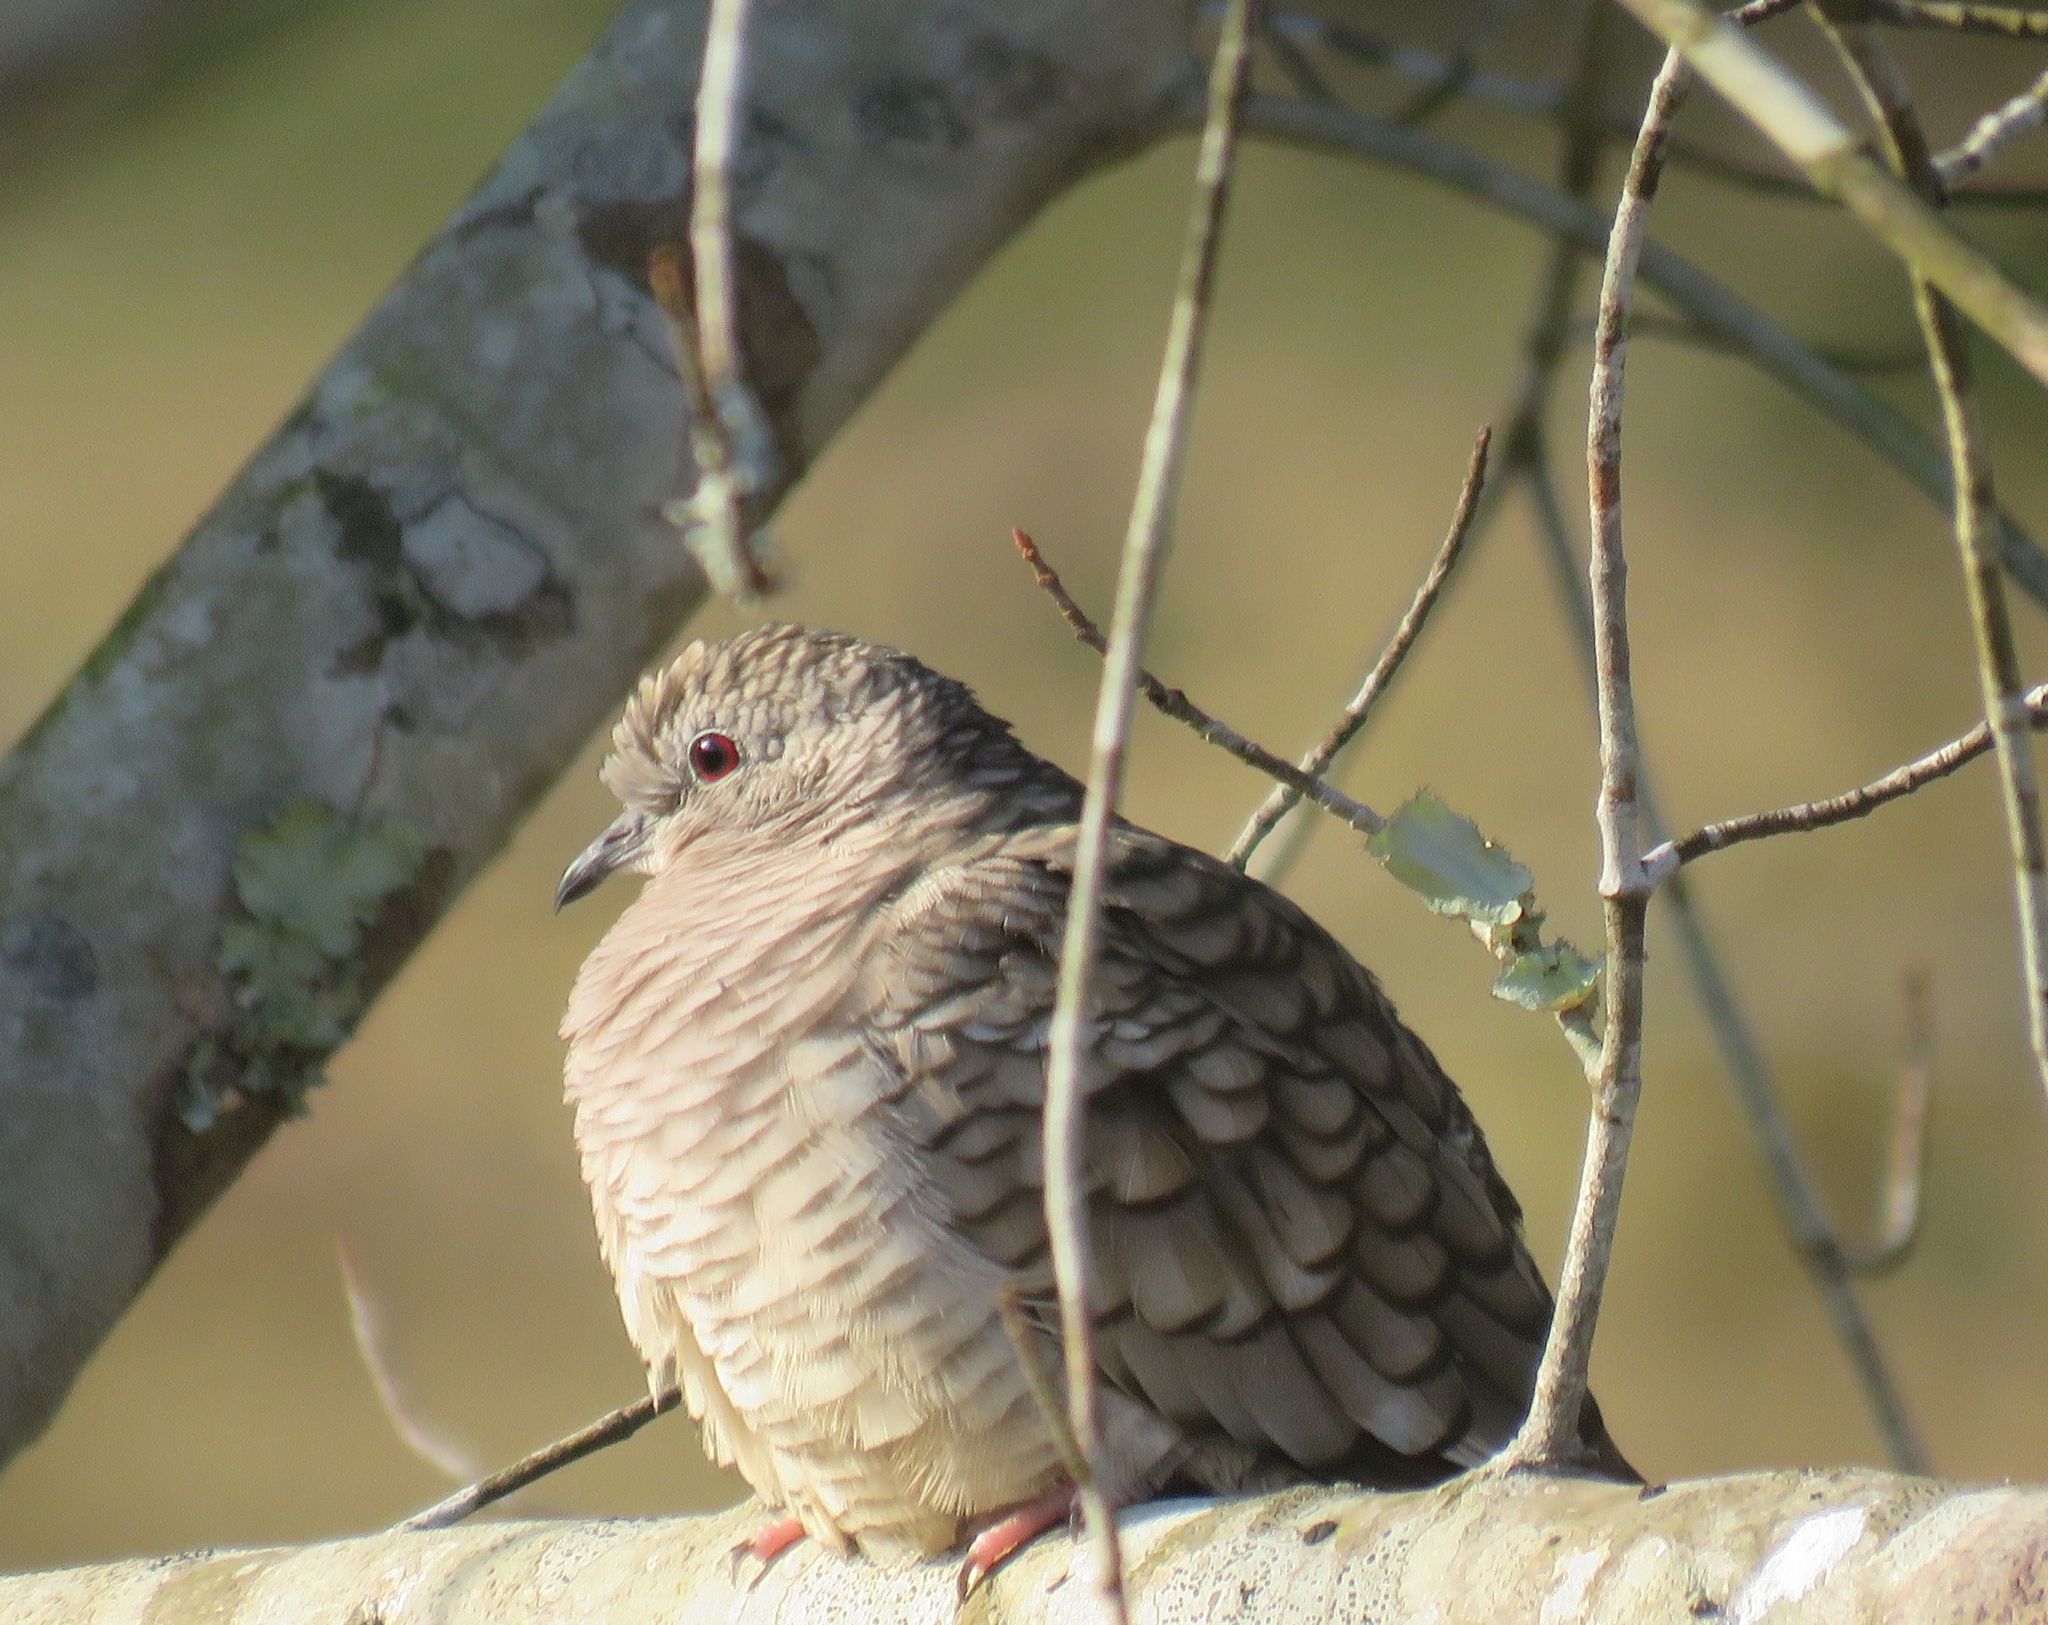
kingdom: Animalia
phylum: Chordata
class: Aves
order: Columbiformes
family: Columbidae
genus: Columbina
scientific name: Columbina inca
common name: Inca dove
